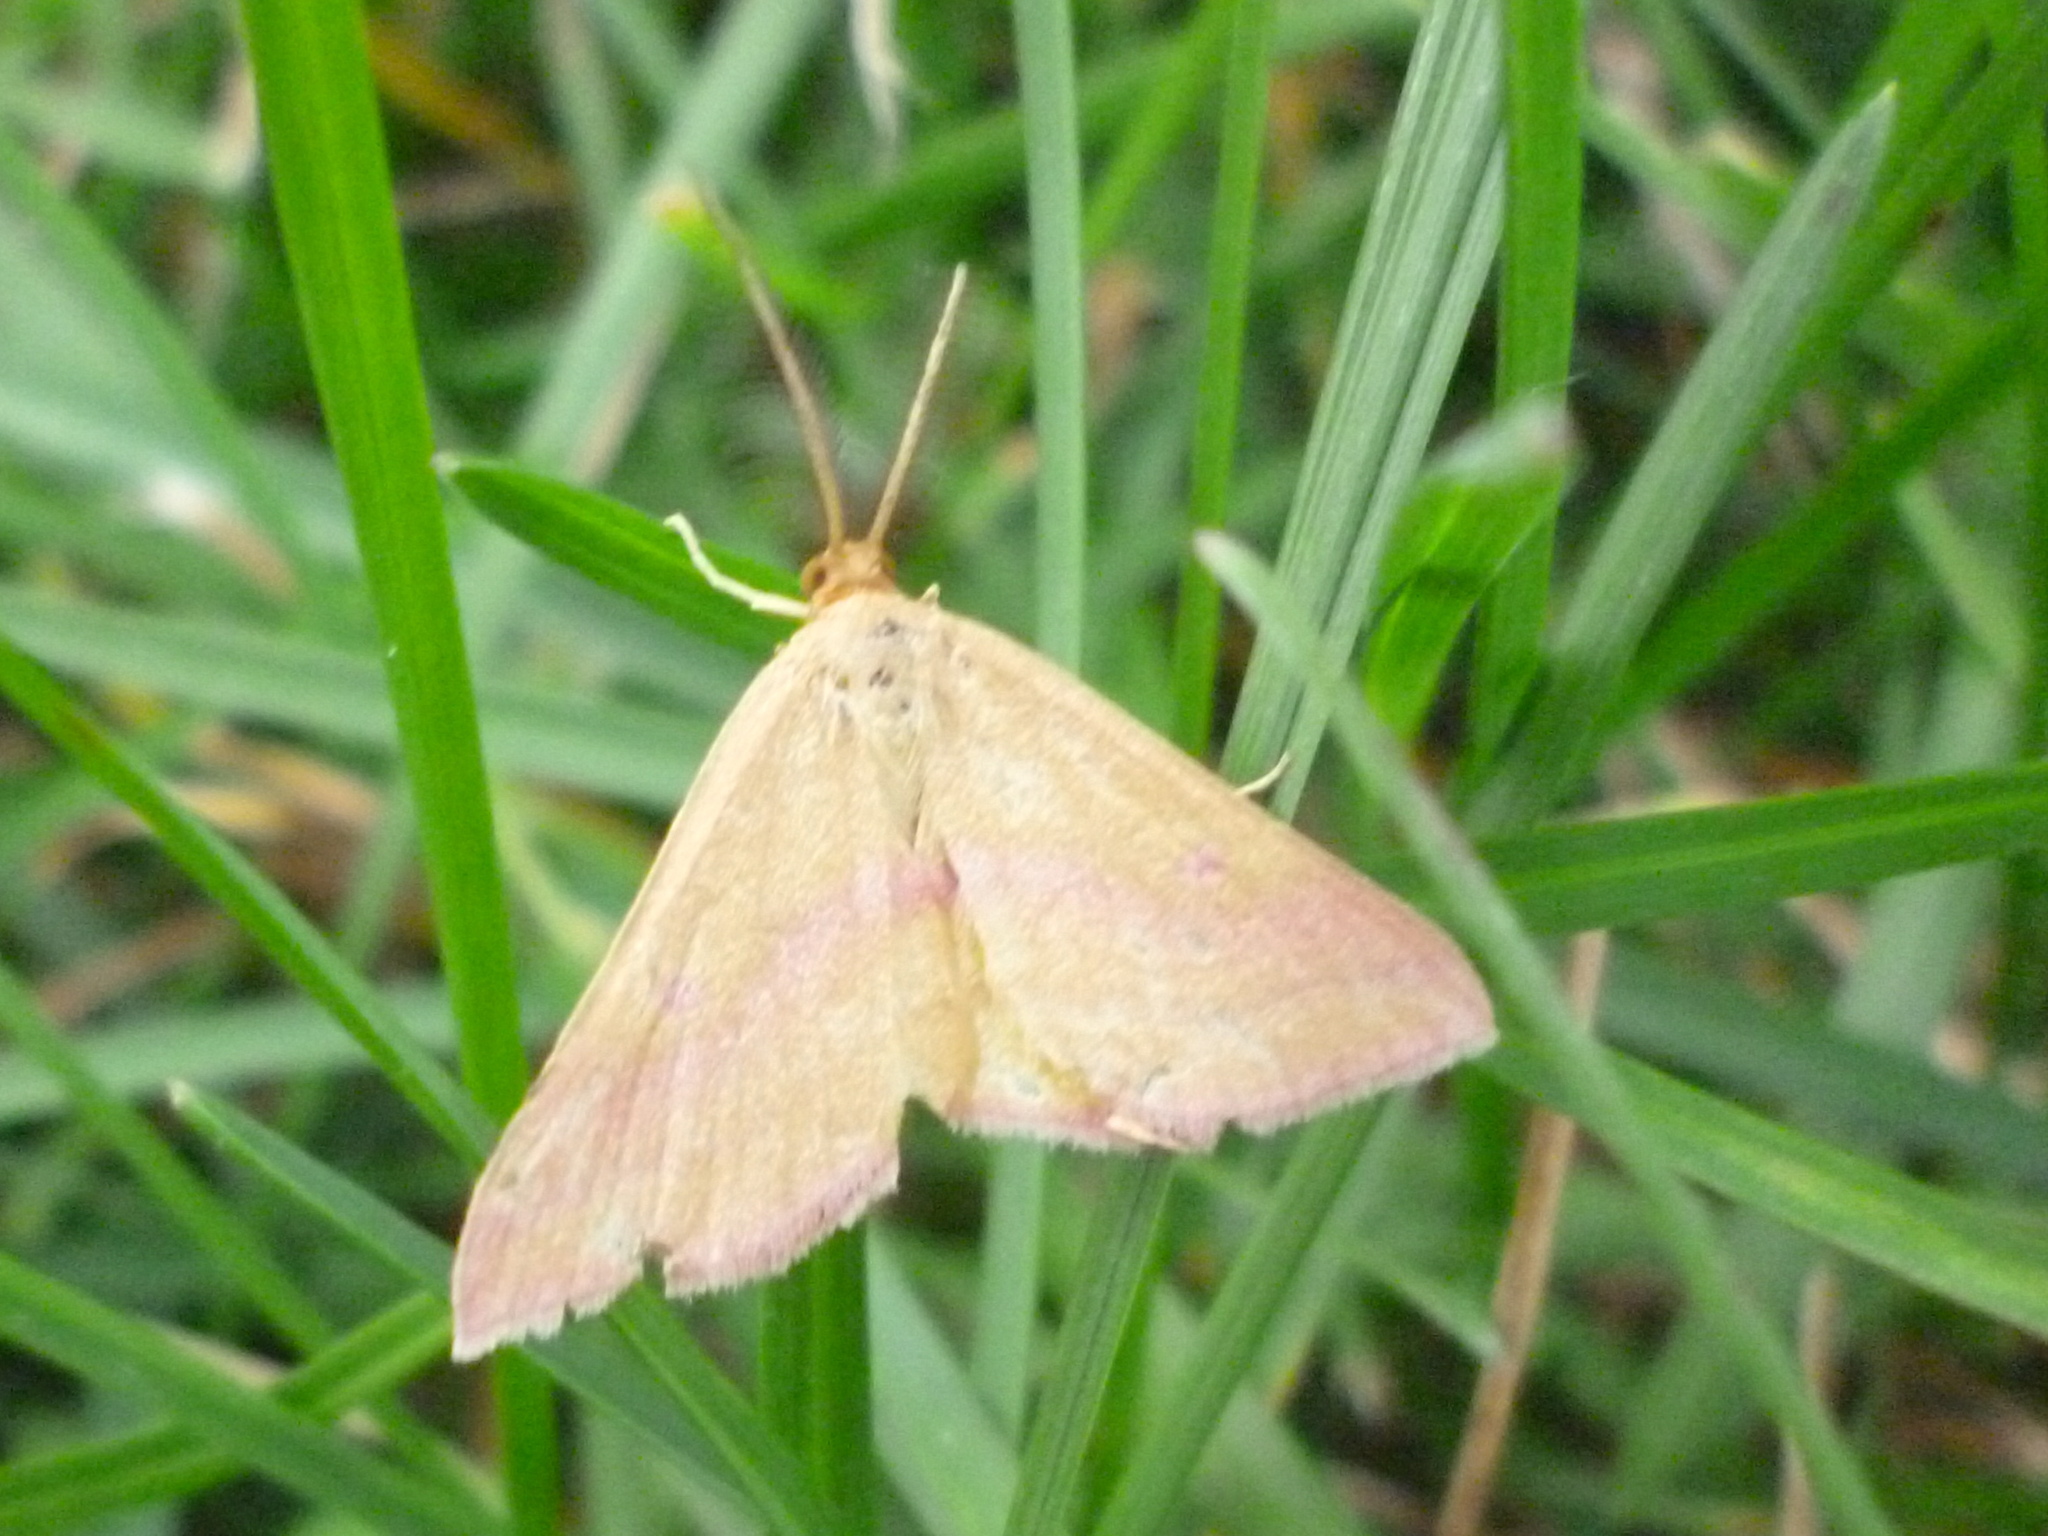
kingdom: Animalia
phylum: Arthropoda
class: Insecta
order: Lepidoptera
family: Geometridae
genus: Haematopis
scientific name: Haematopis grataria
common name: Chickweed geometer
